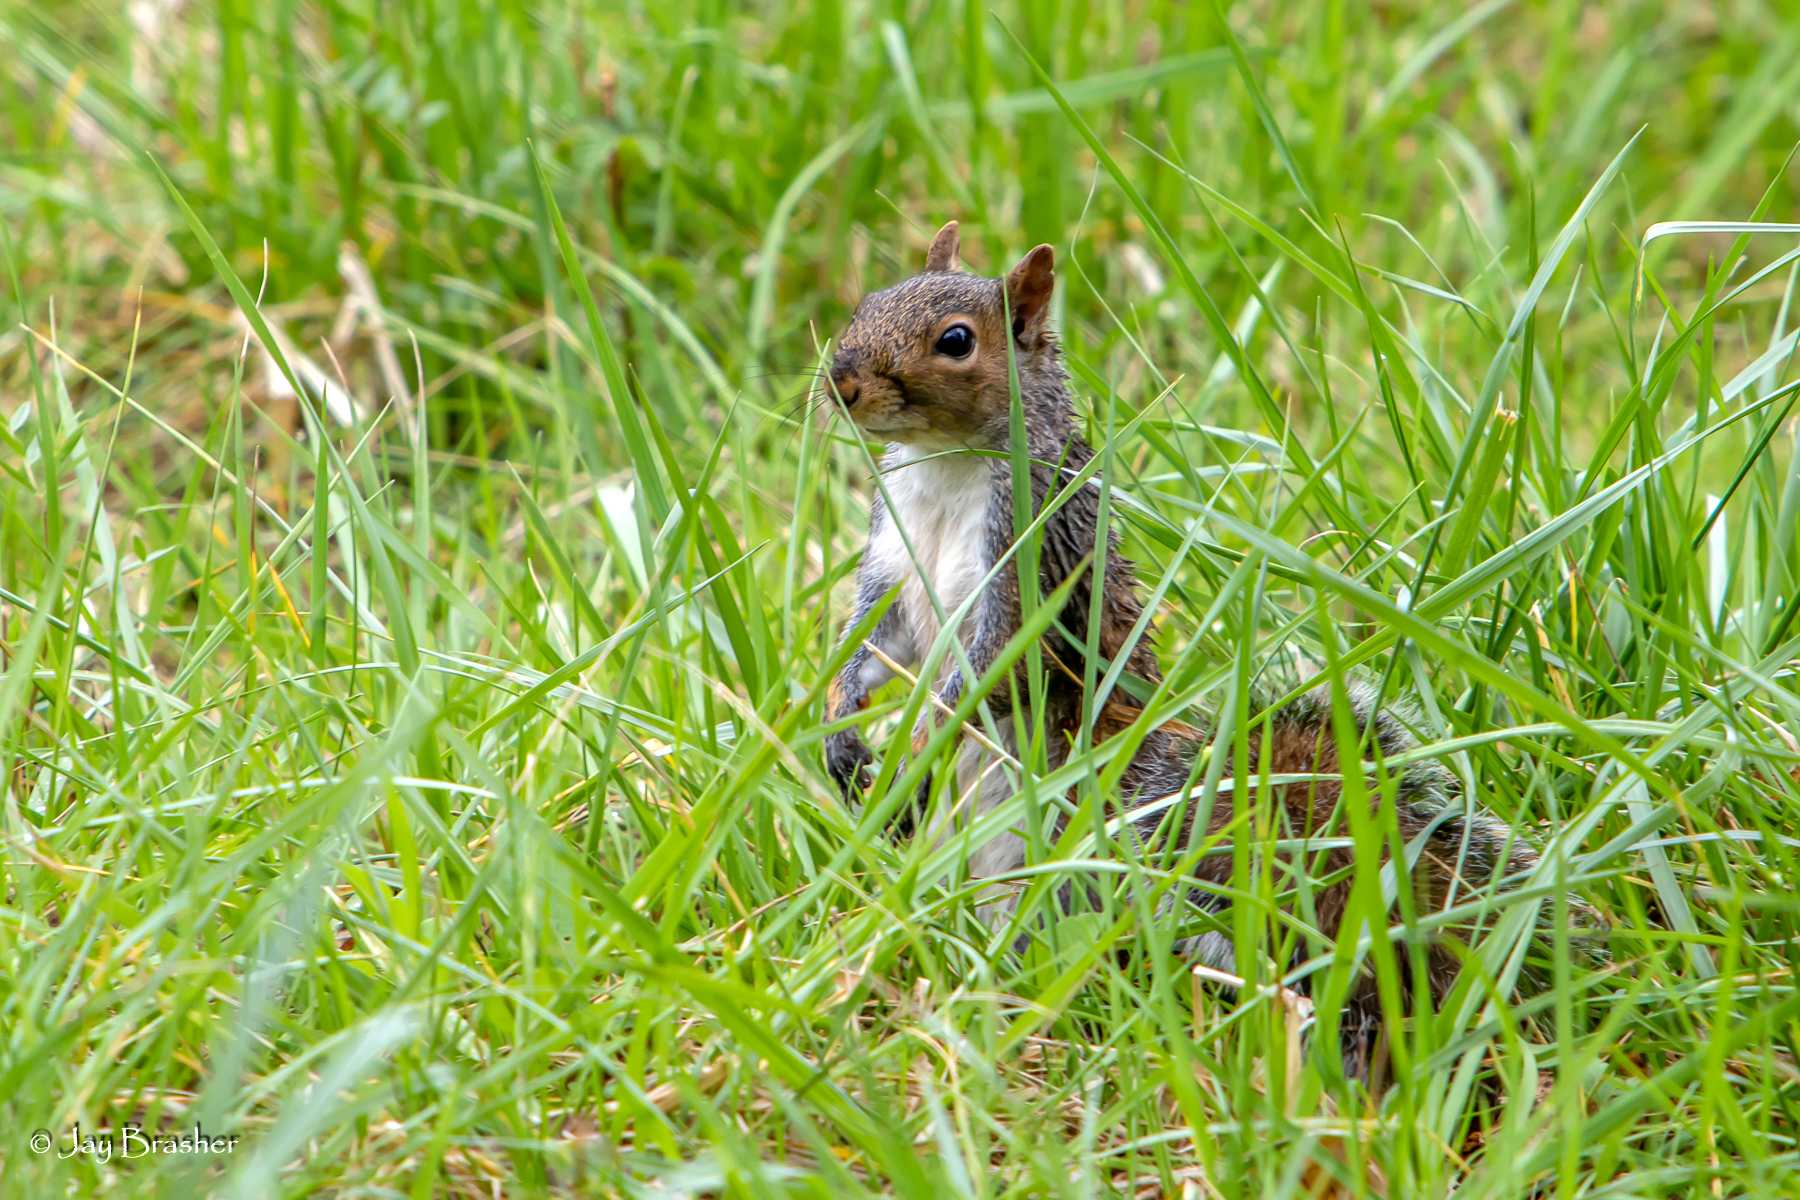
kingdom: Animalia
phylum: Chordata
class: Mammalia
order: Rodentia
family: Sciuridae
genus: Sciurus
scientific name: Sciurus carolinensis
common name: Eastern gray squirrel
